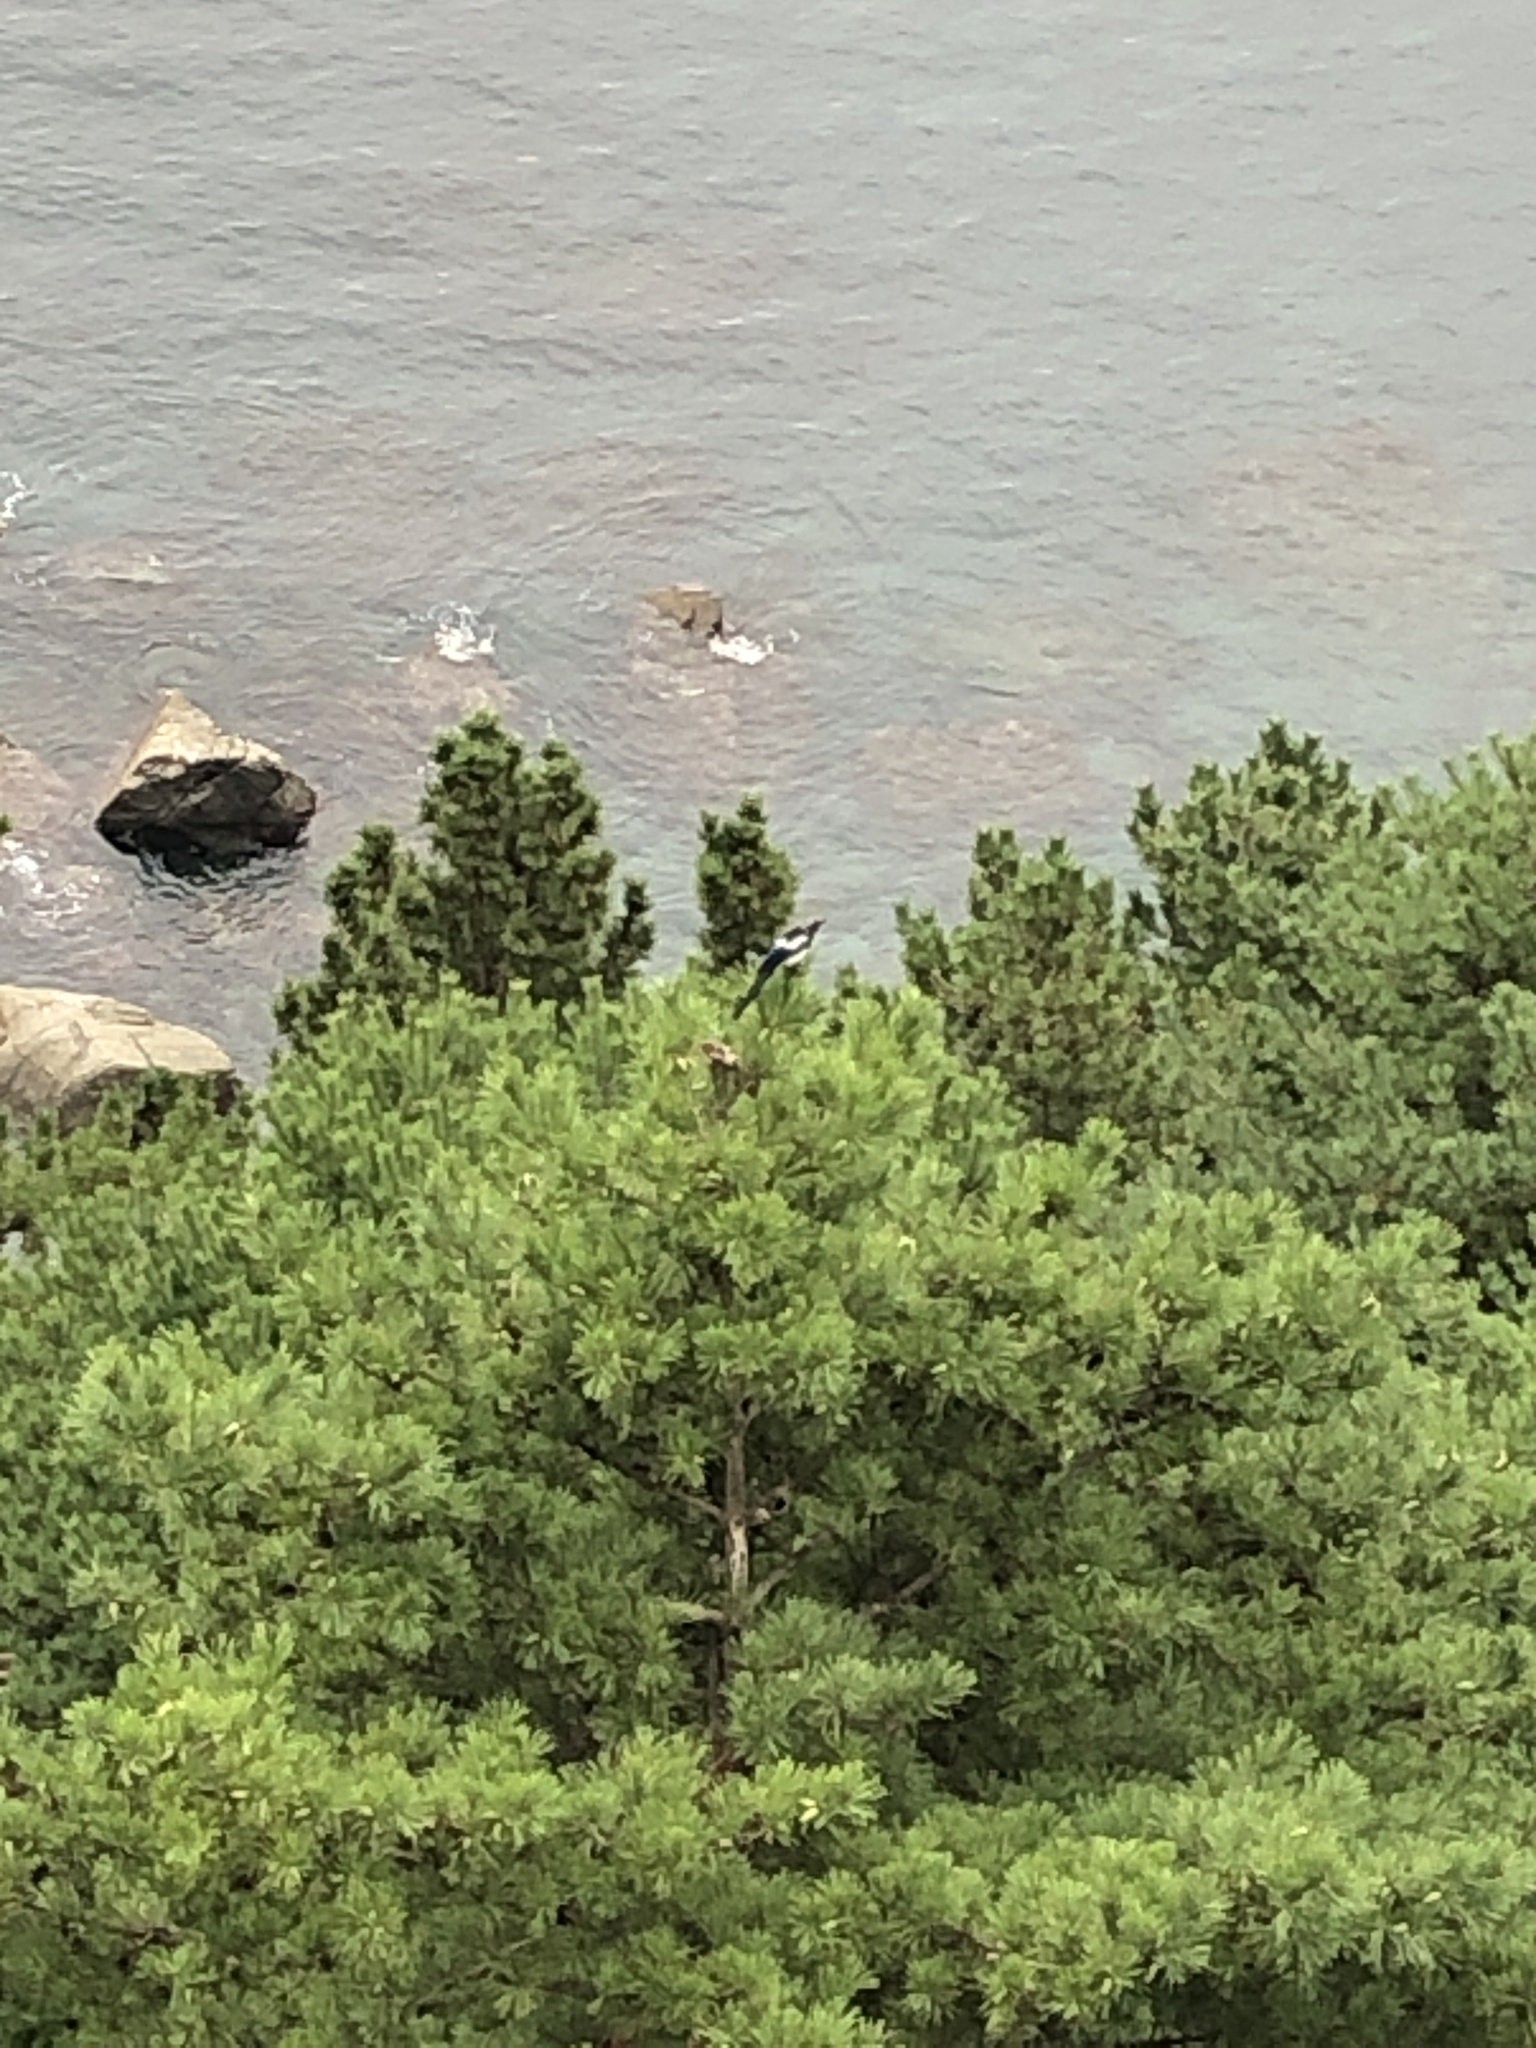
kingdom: Animalia
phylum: Chordata
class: Aves
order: Passeriformes
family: Corvidae
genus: Pica
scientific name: Pica serica
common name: Oriental magpie
